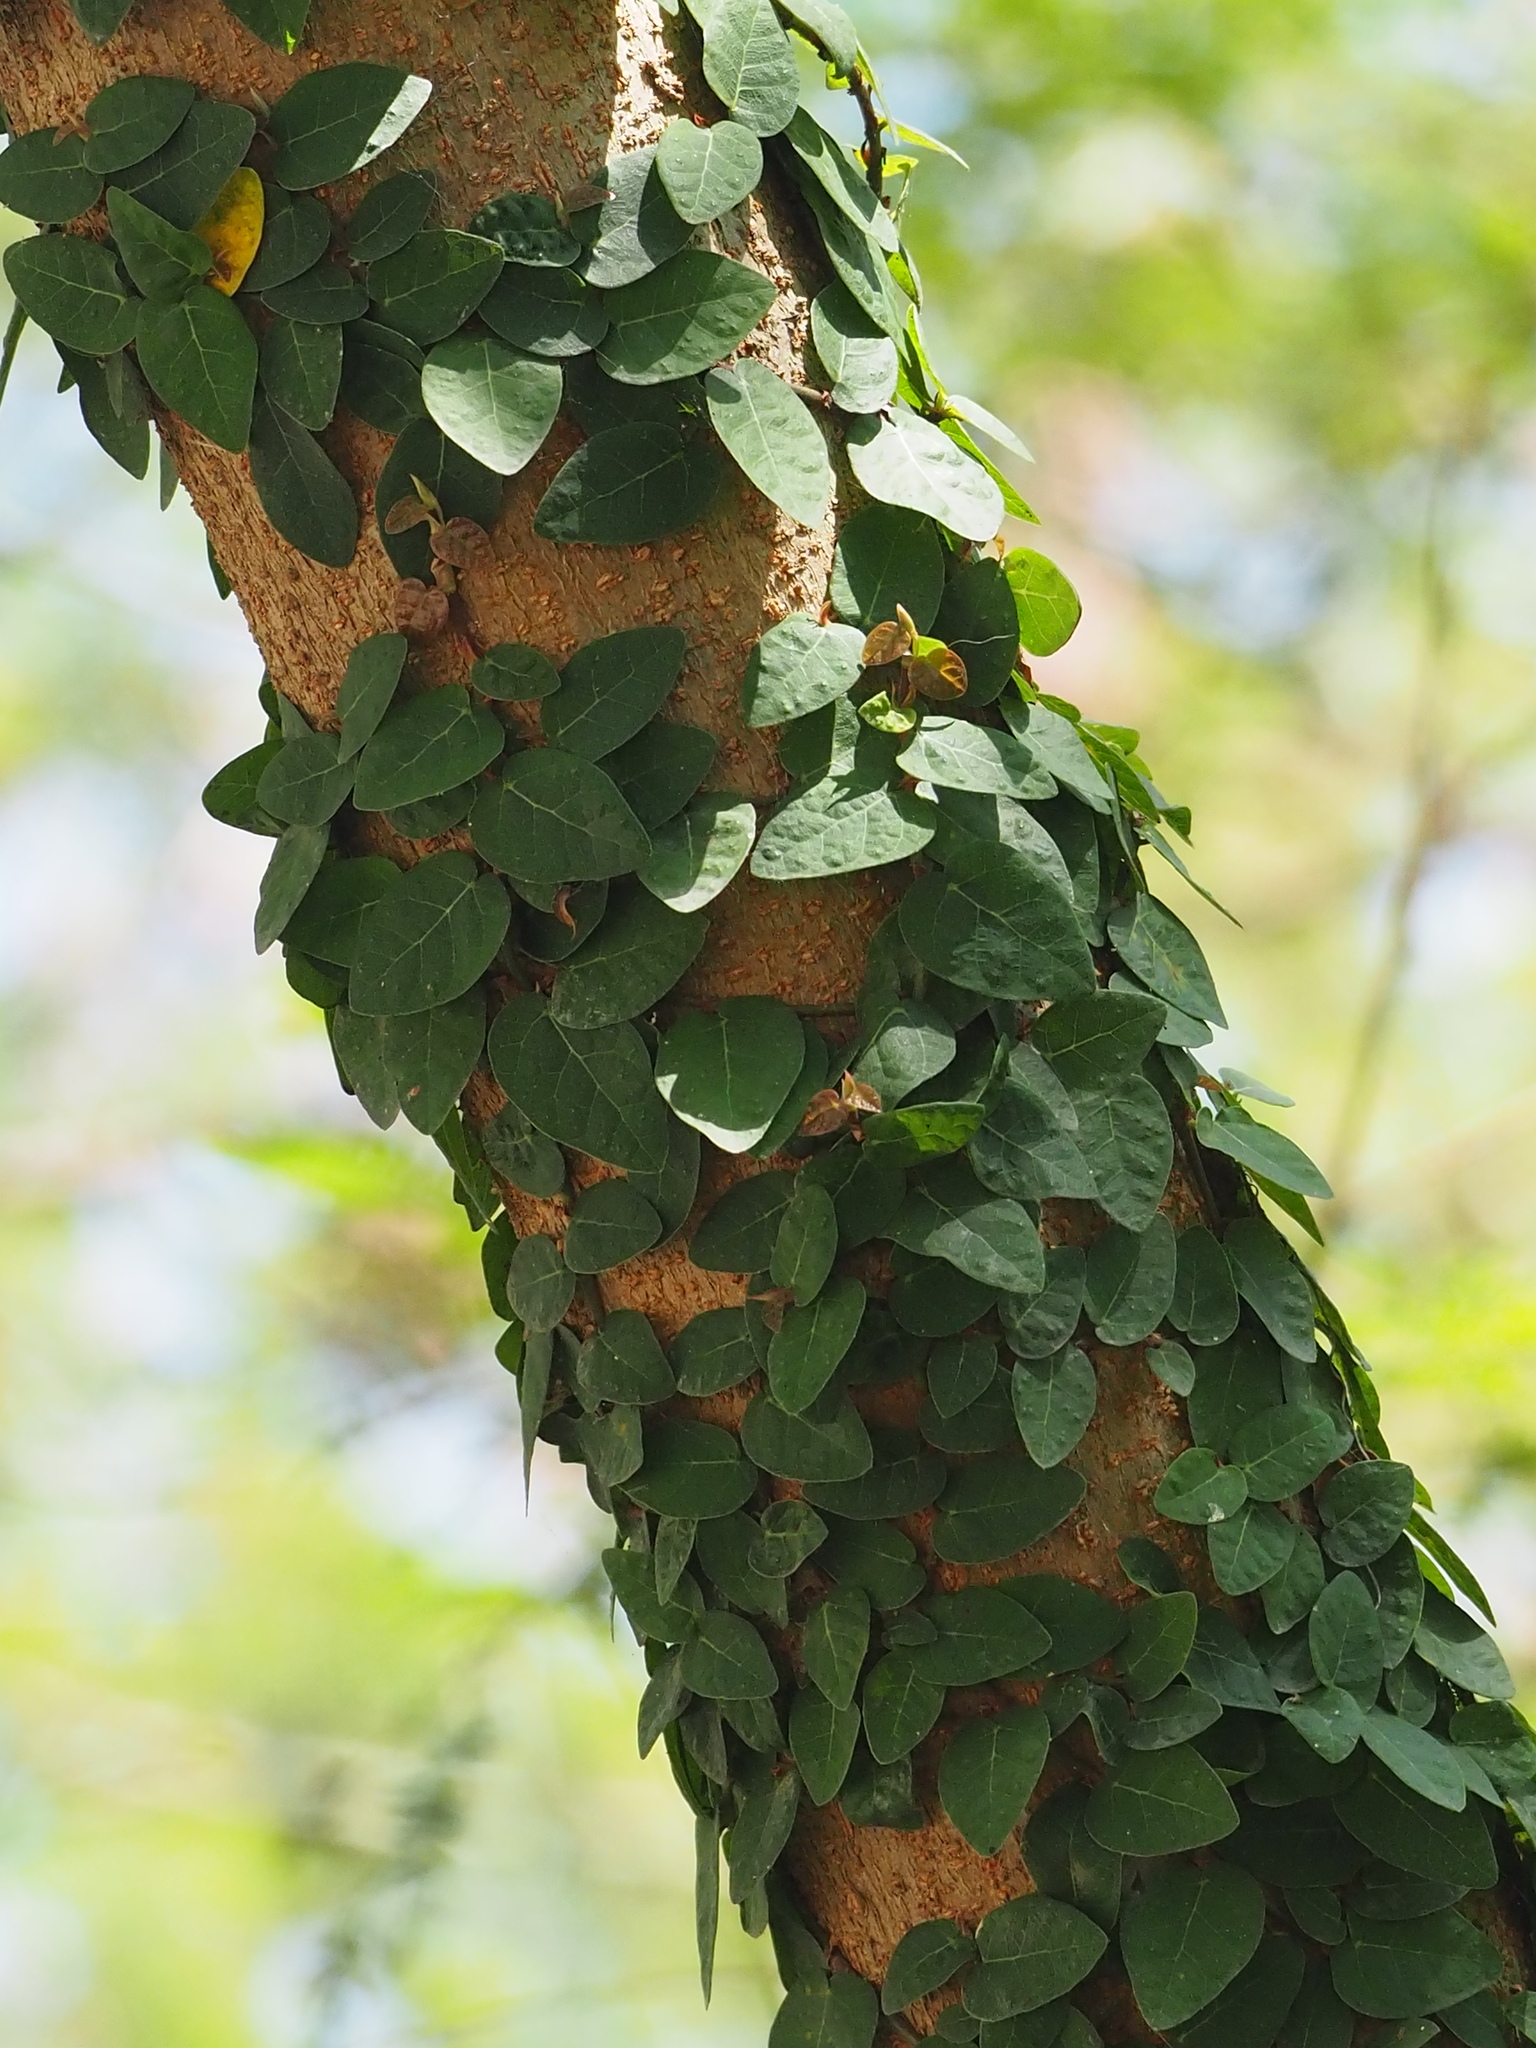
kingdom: Plantae
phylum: Tracheophyta
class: Magnoliopsida
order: Rosales
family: Moraceae
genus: Ficus
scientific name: Ficus pumila
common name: Climbingfig
